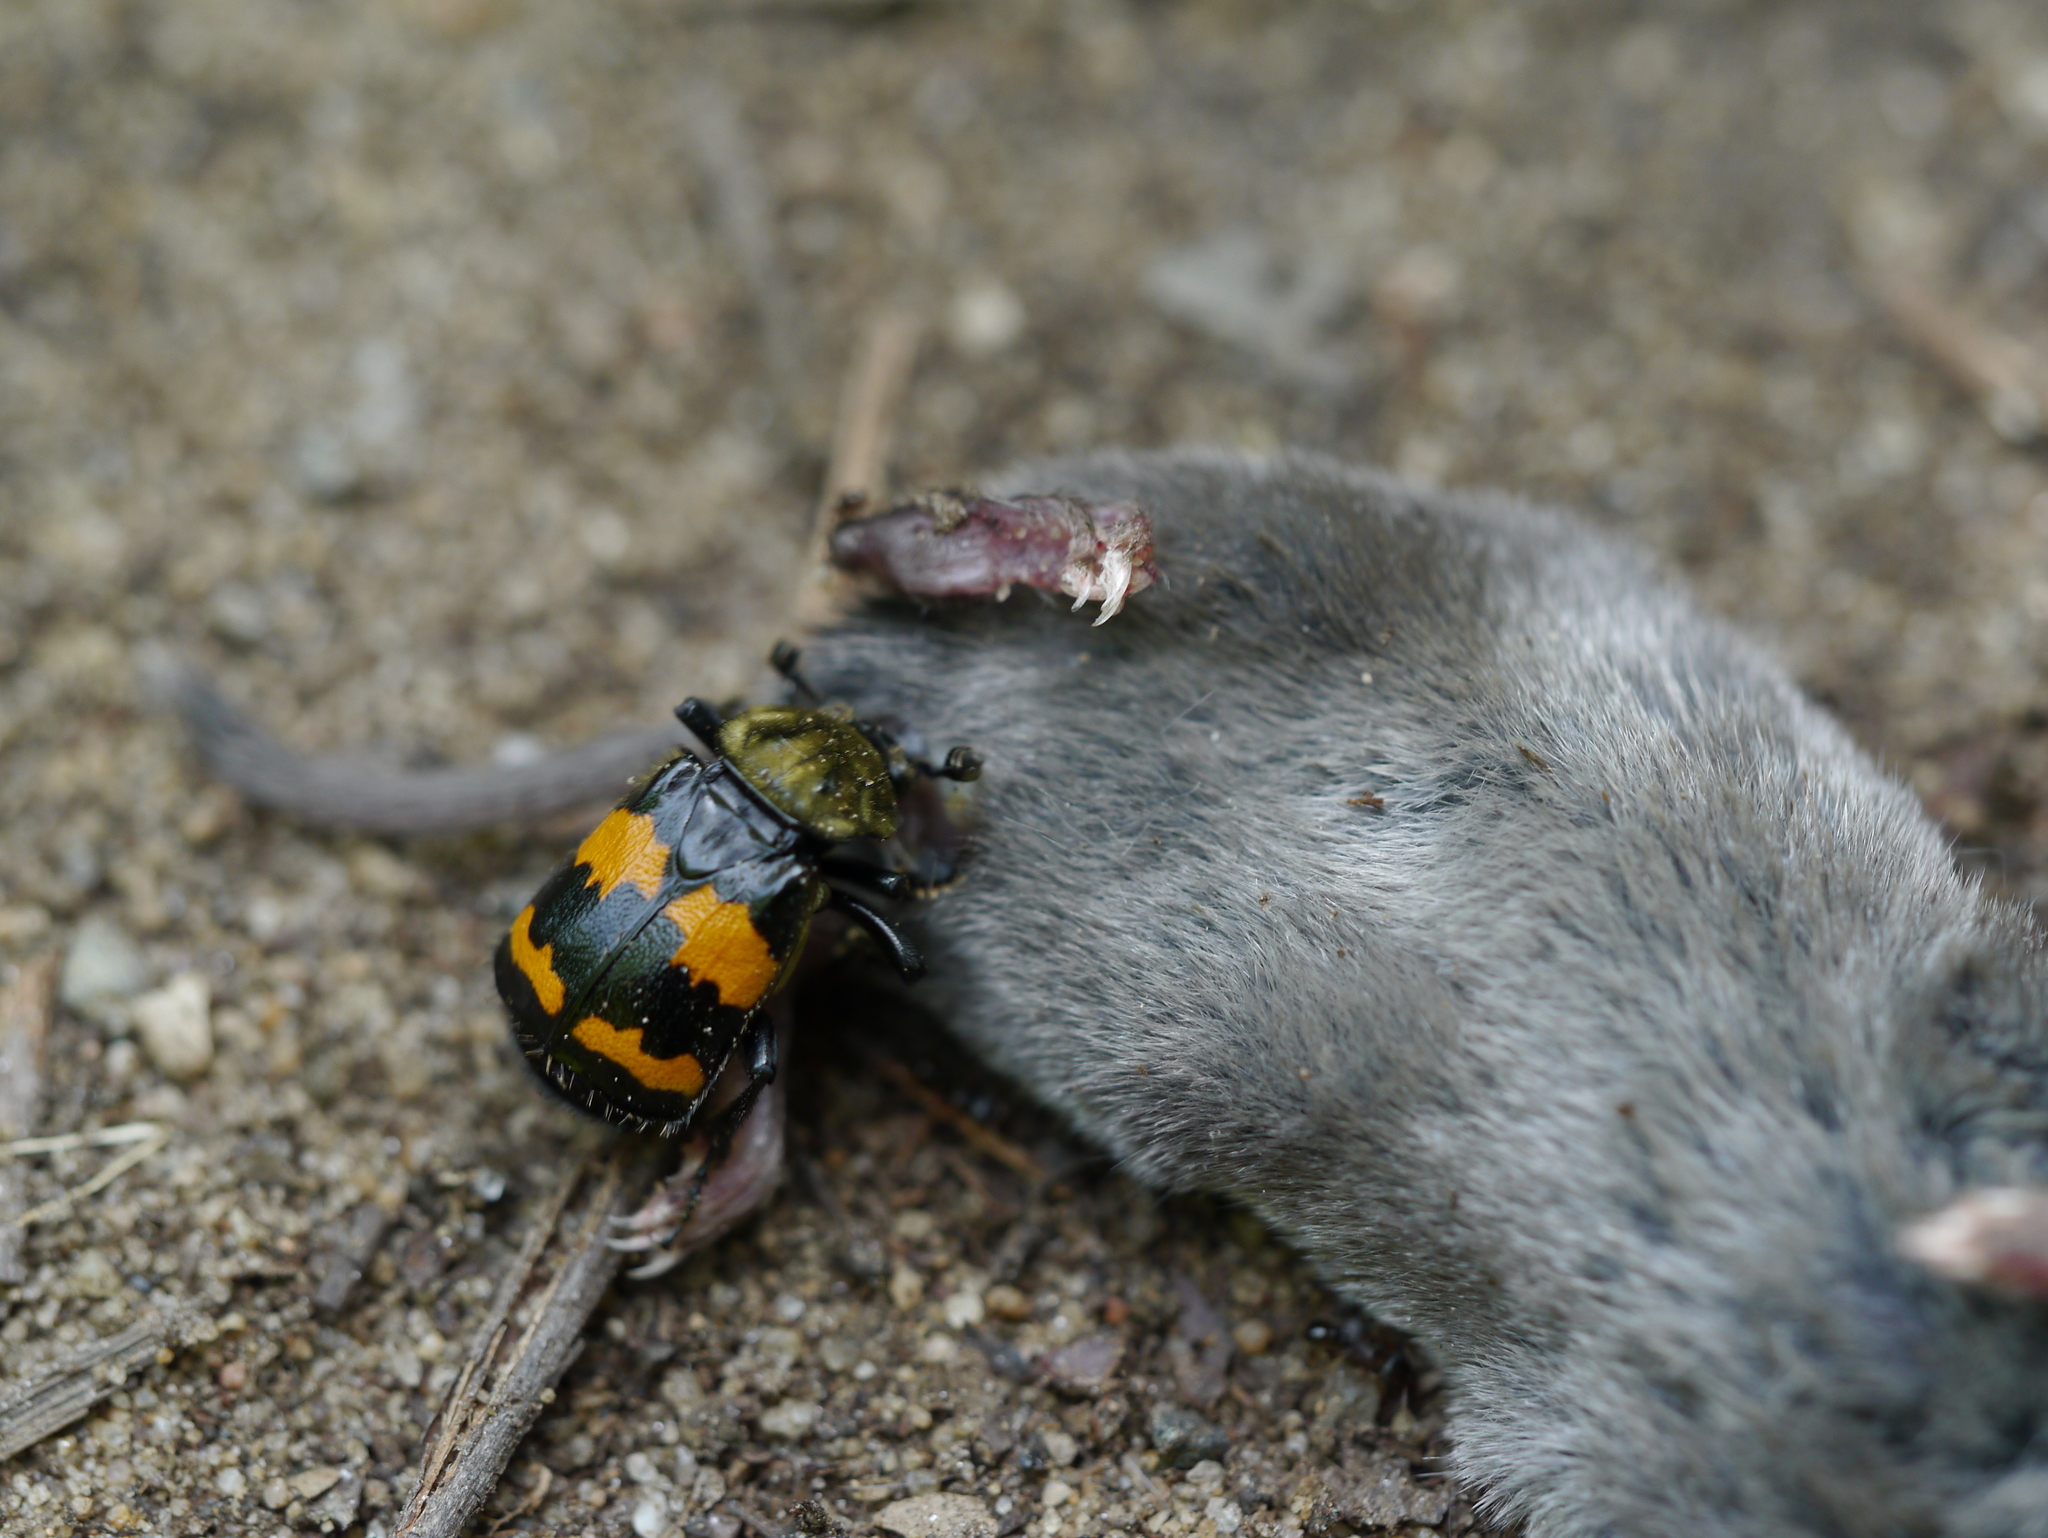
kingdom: Animalia
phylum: Arthropoda
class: Insecta
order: Coleoptera
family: Staphylinidae
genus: Nicrophorus
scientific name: Nicrophorus tomentosus
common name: Tomentose burying beetle
